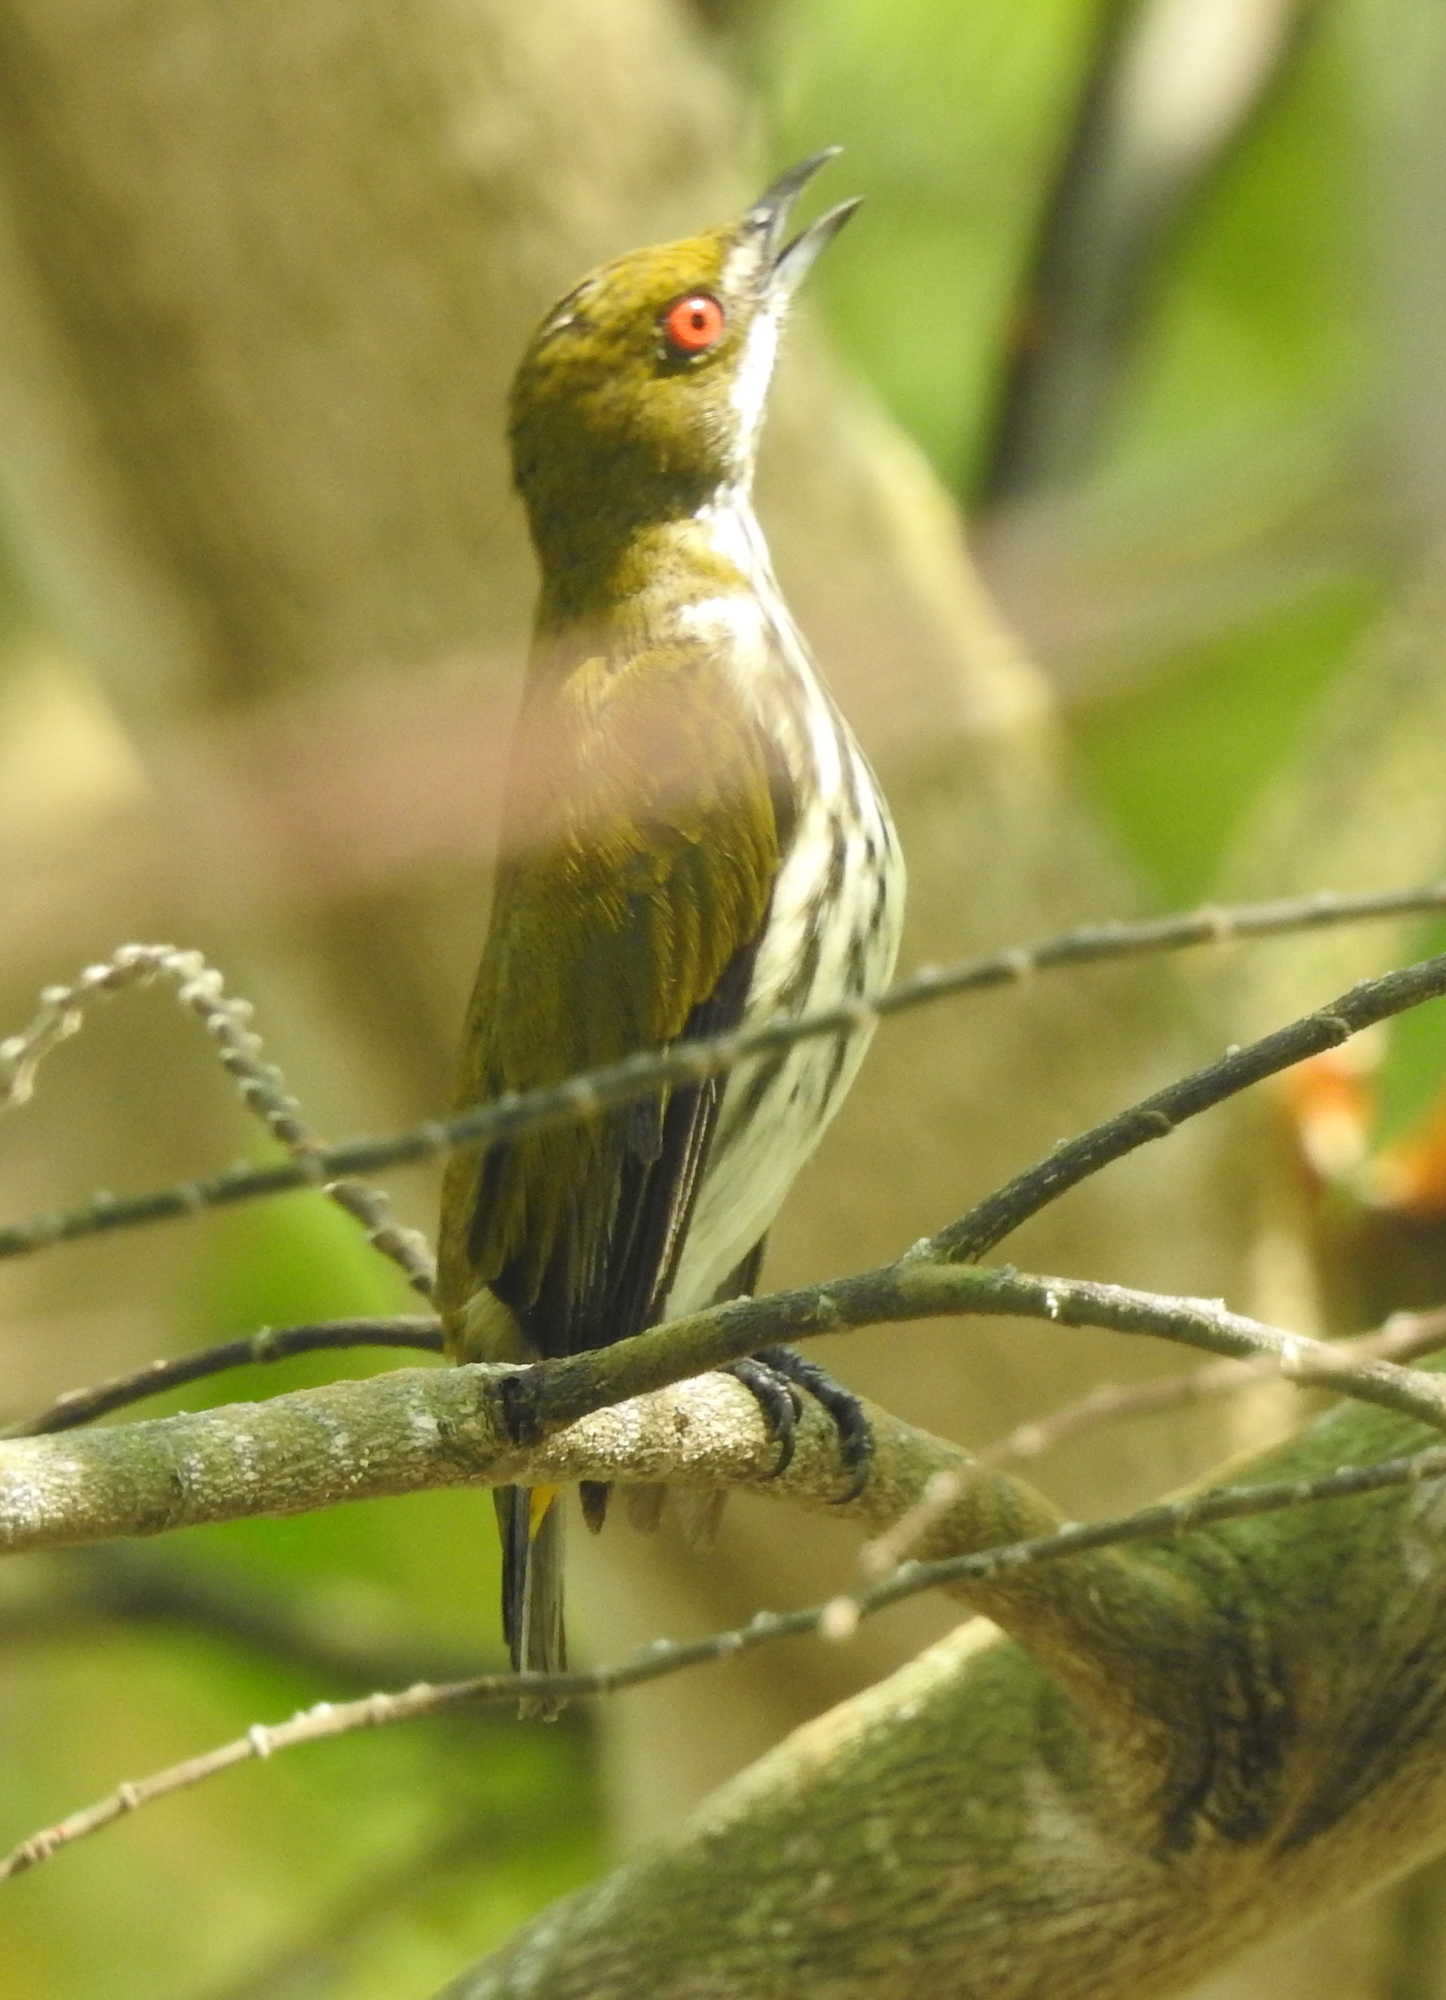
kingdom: Animalia
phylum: Chordata
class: Aves
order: Passeriformes
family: Dicaeidae
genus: Dicaeum
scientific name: Dicaeum chrysorrheum
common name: Yellow-vented flowerpecker
